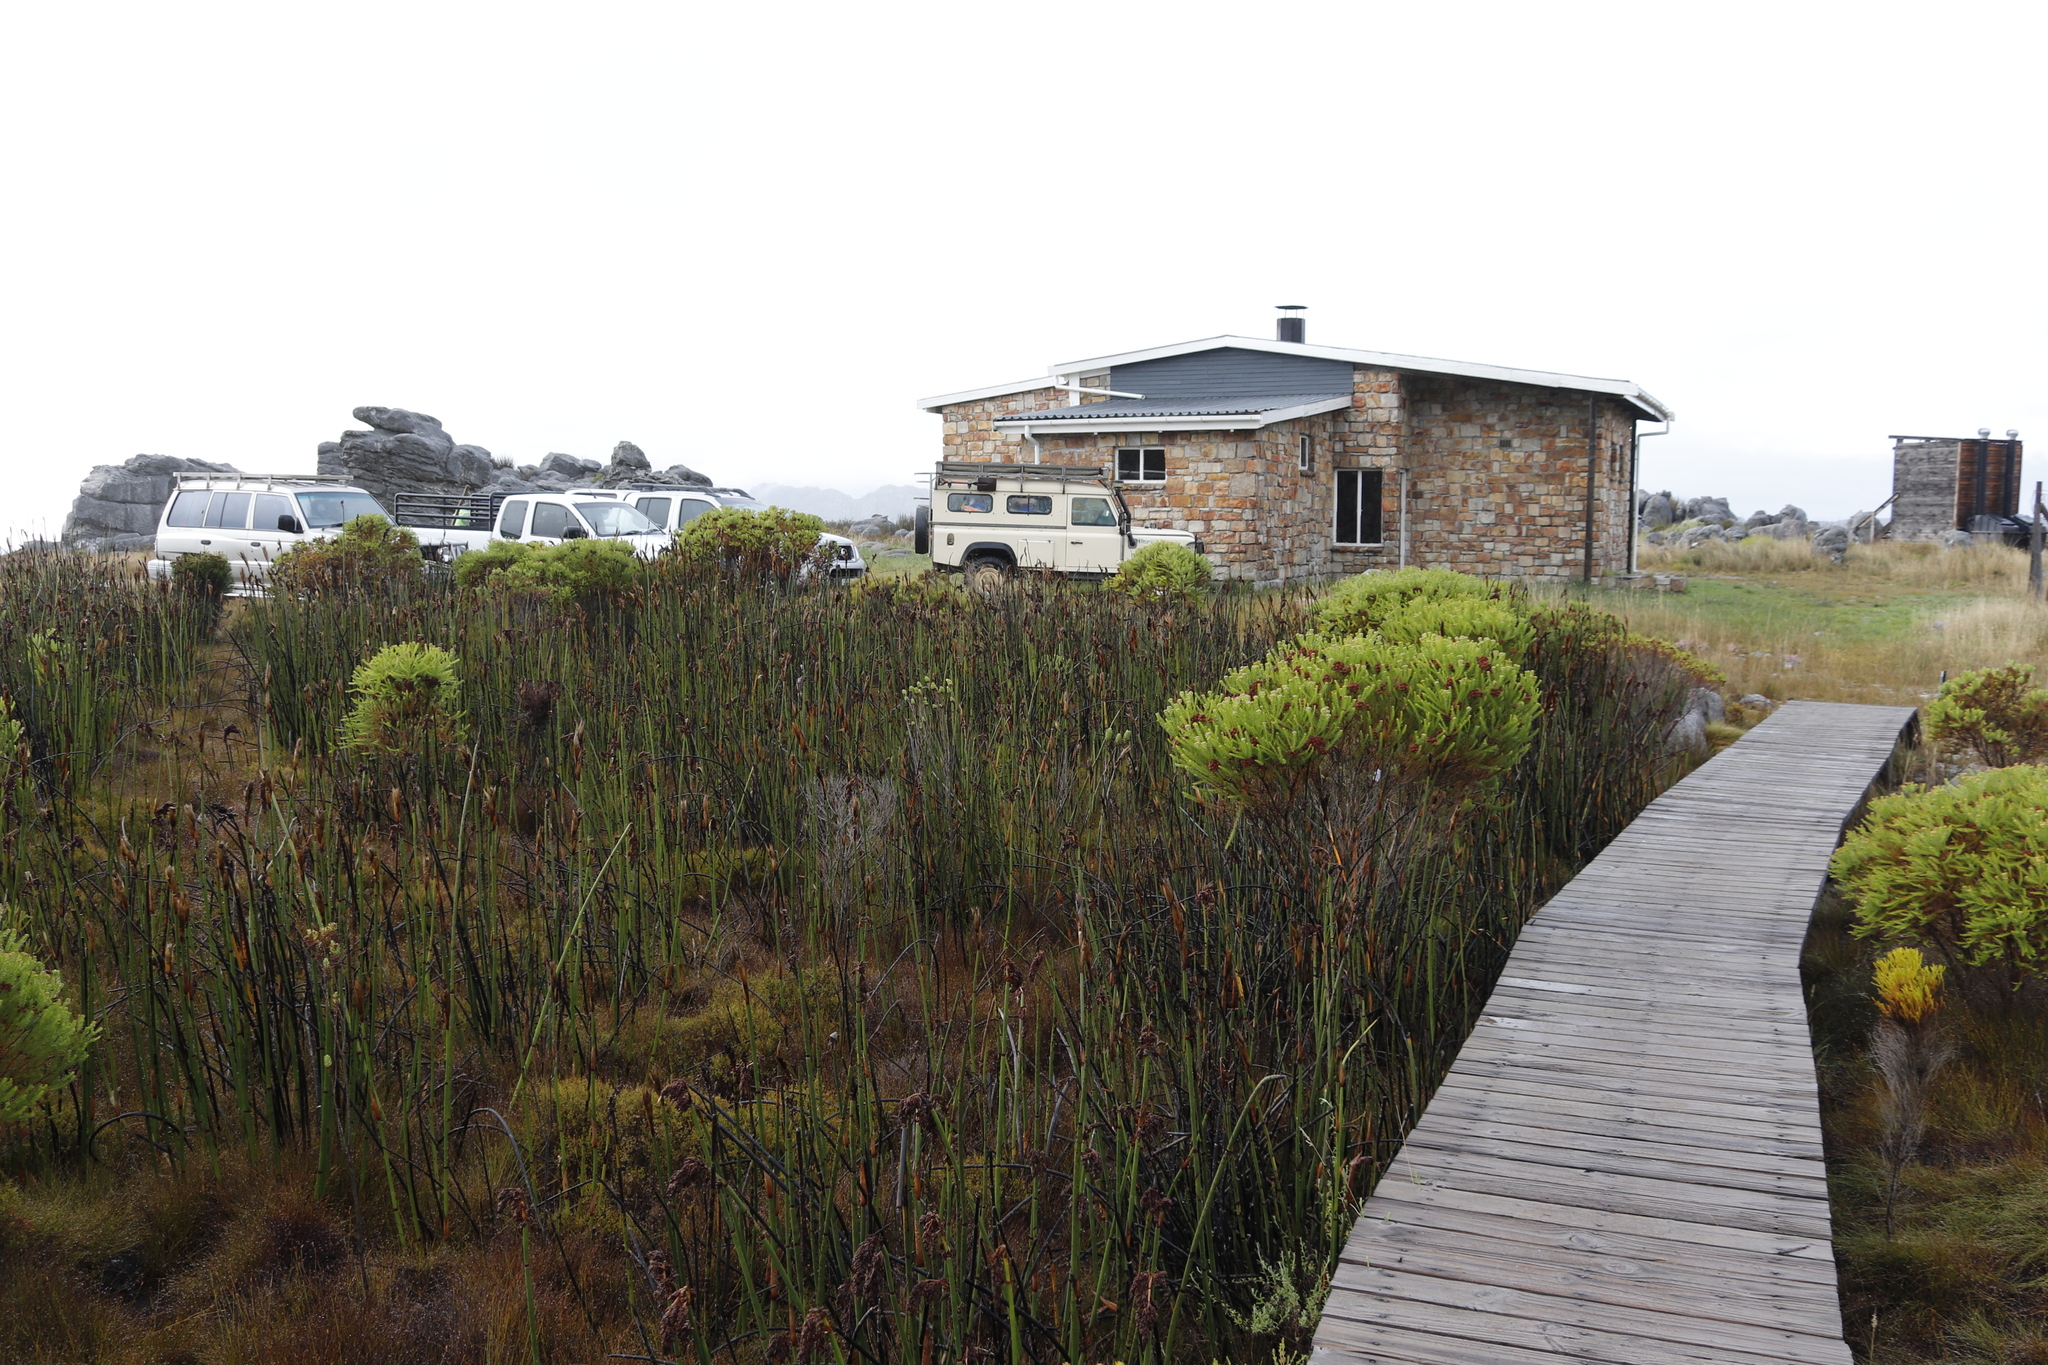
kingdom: Plantae
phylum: Tracheophyta
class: Liliopsida
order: Poales
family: Restionaceae
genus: Elegia
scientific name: Elegia mucronata
